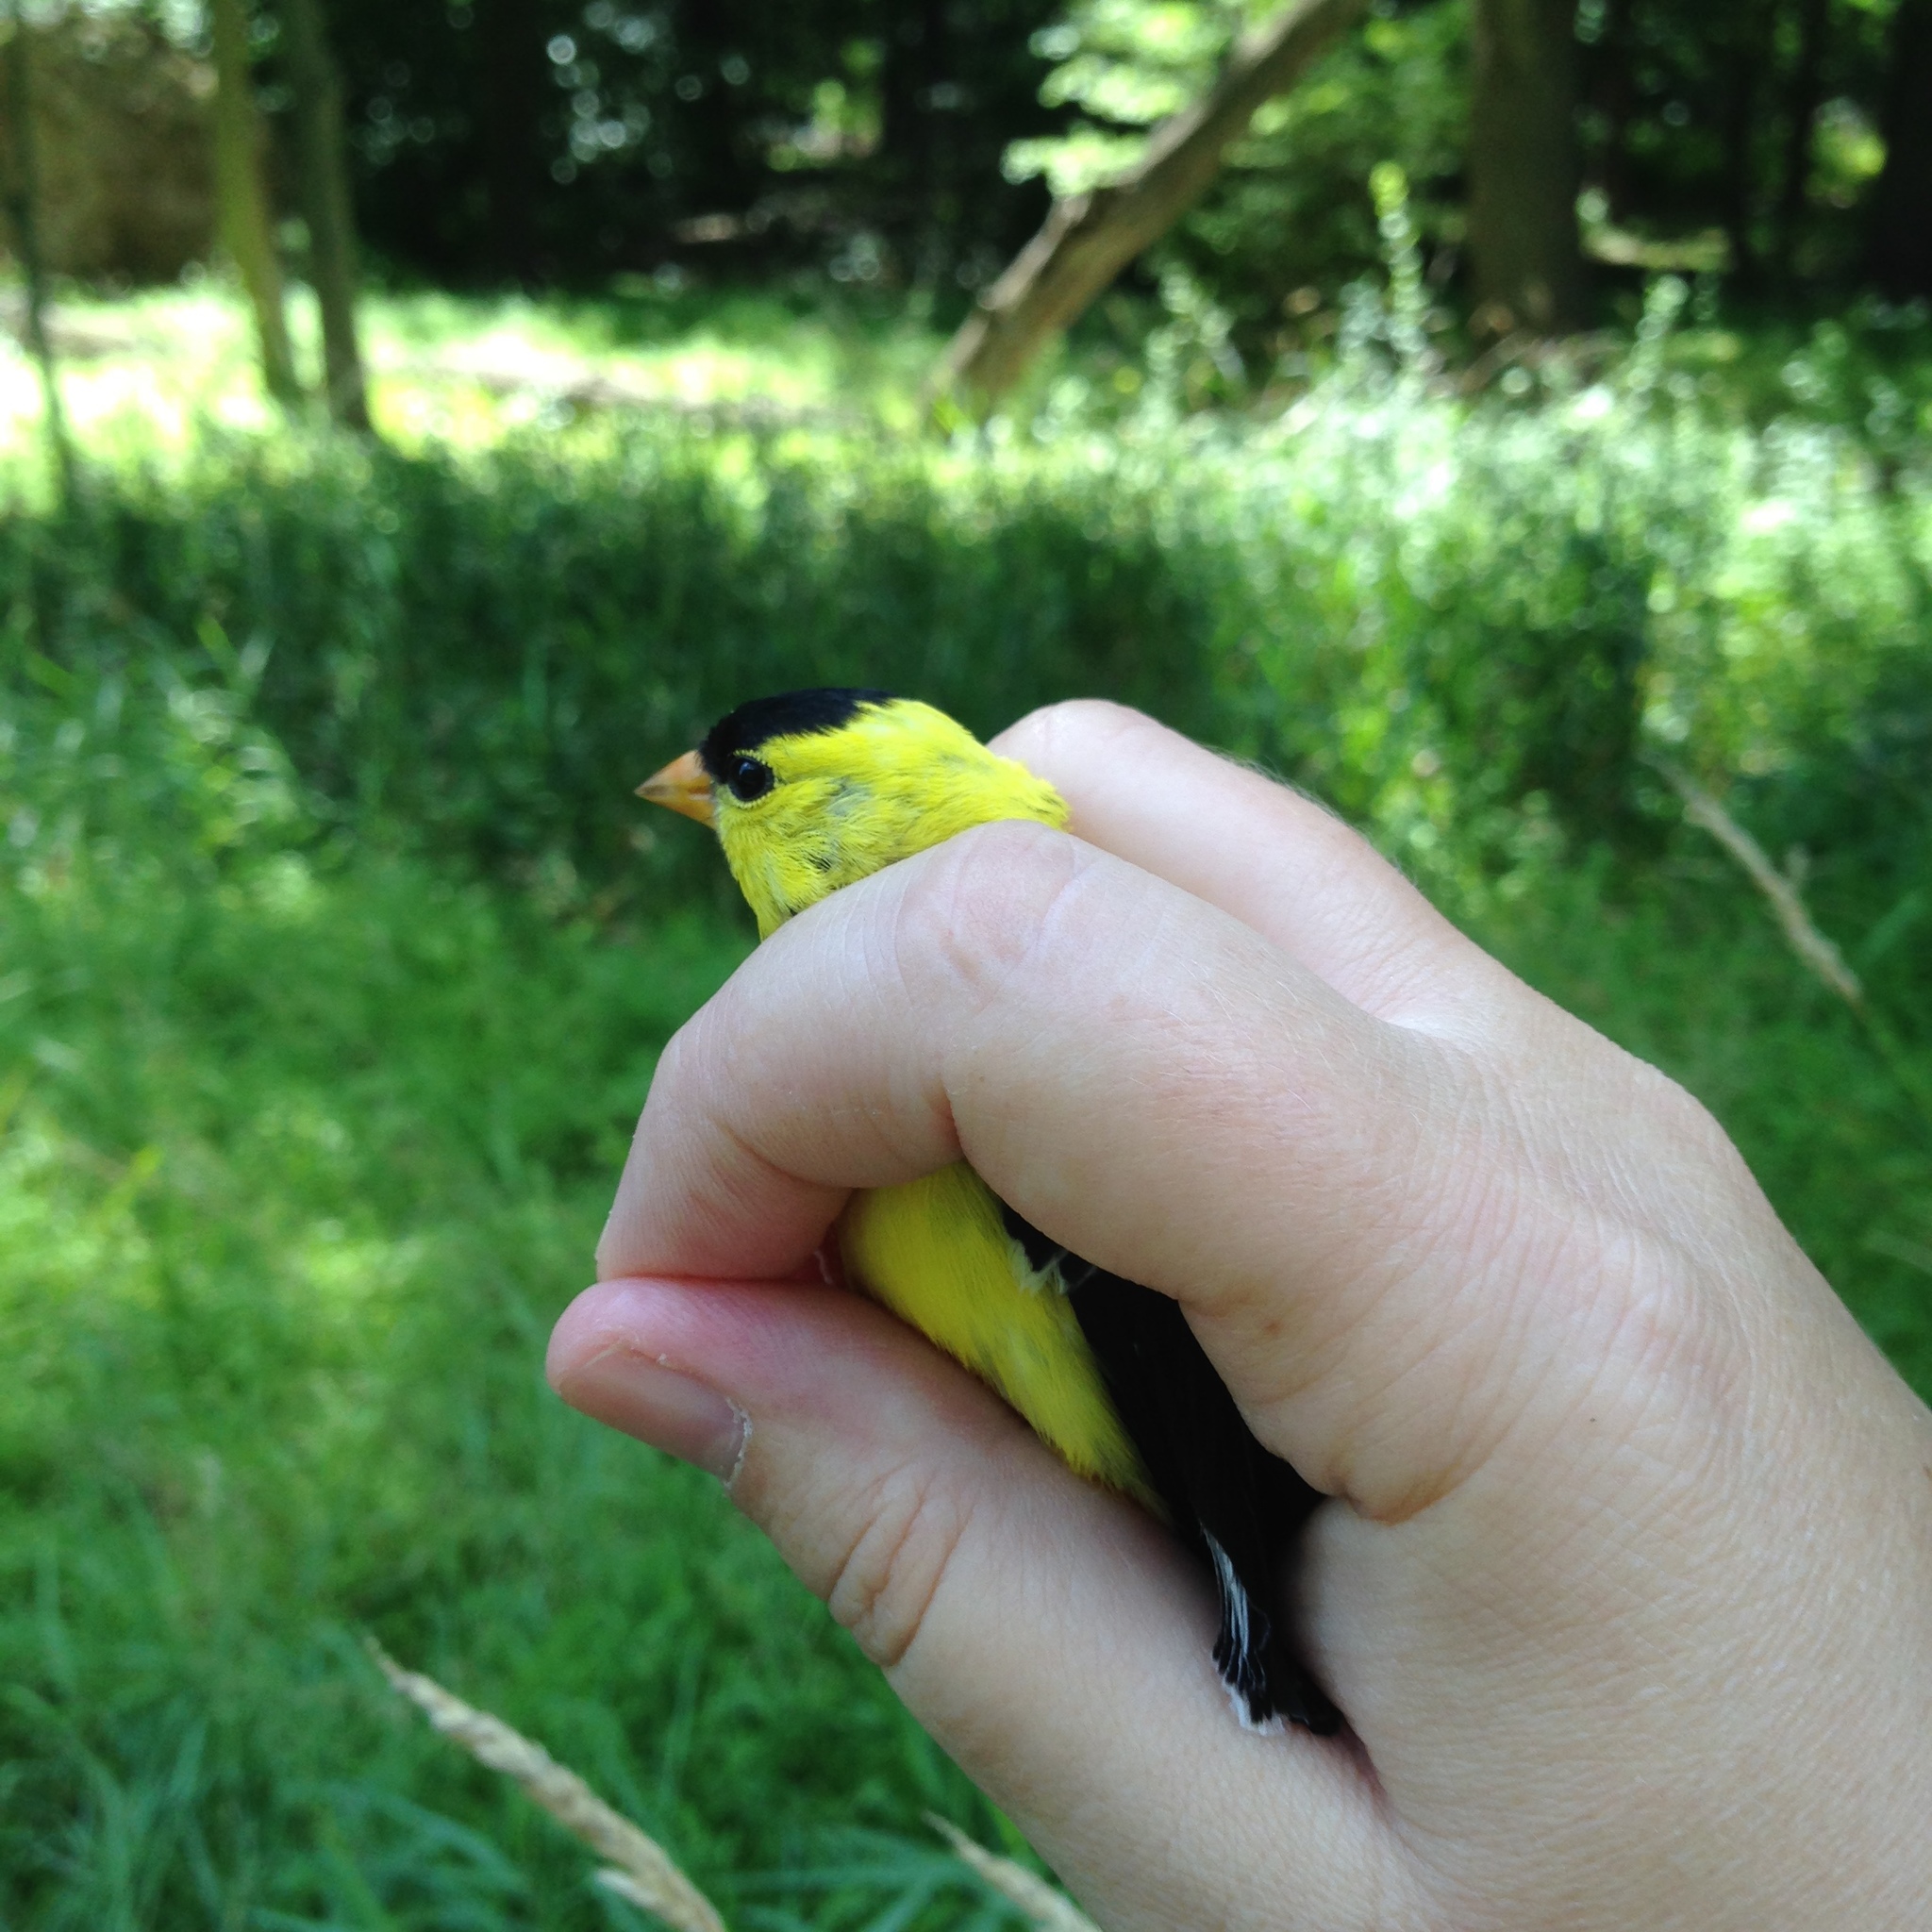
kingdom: Animalia
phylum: Chordata
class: Aves
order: Passeriformes
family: Fringillidae
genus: Spinus
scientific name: Spinus tristis
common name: American goldfinch
